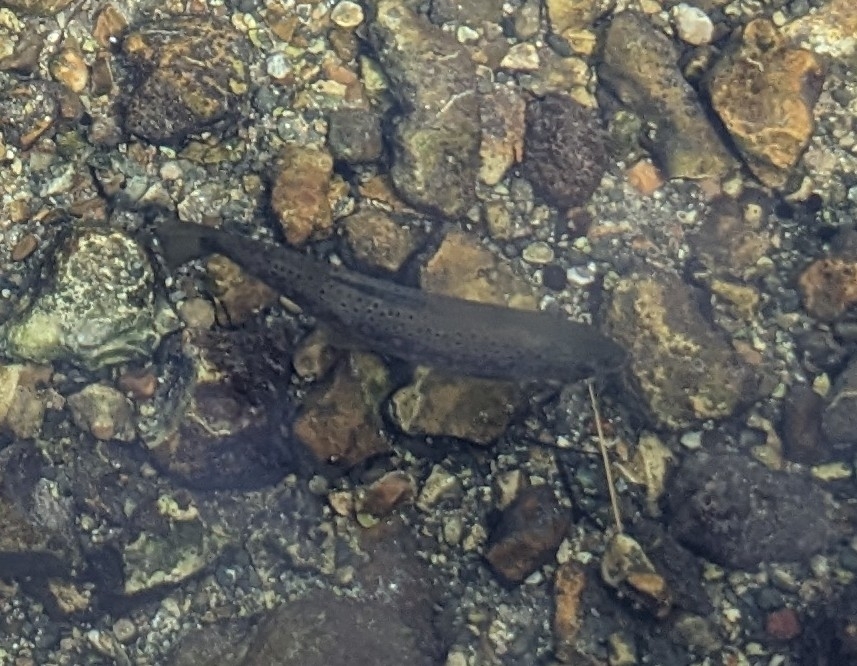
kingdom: Animalia
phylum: Chordata
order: Salmoniformes
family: Salmonidae
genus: Salmo
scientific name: Salmo trutta
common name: Brown trout
